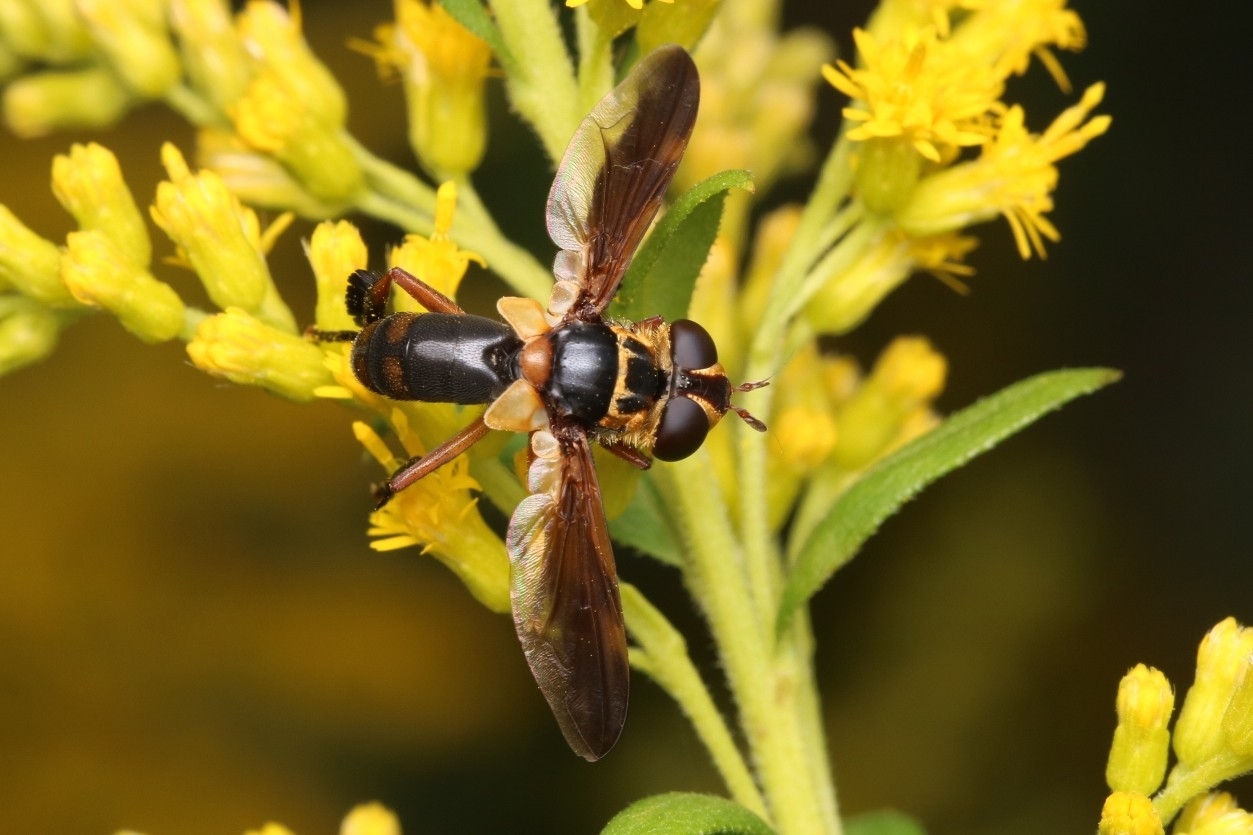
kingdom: Animalia
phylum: Arthropoda
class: Insecta
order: Diptera
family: Tachinidae
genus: Trichopoda
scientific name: Trichopoda plumipes
